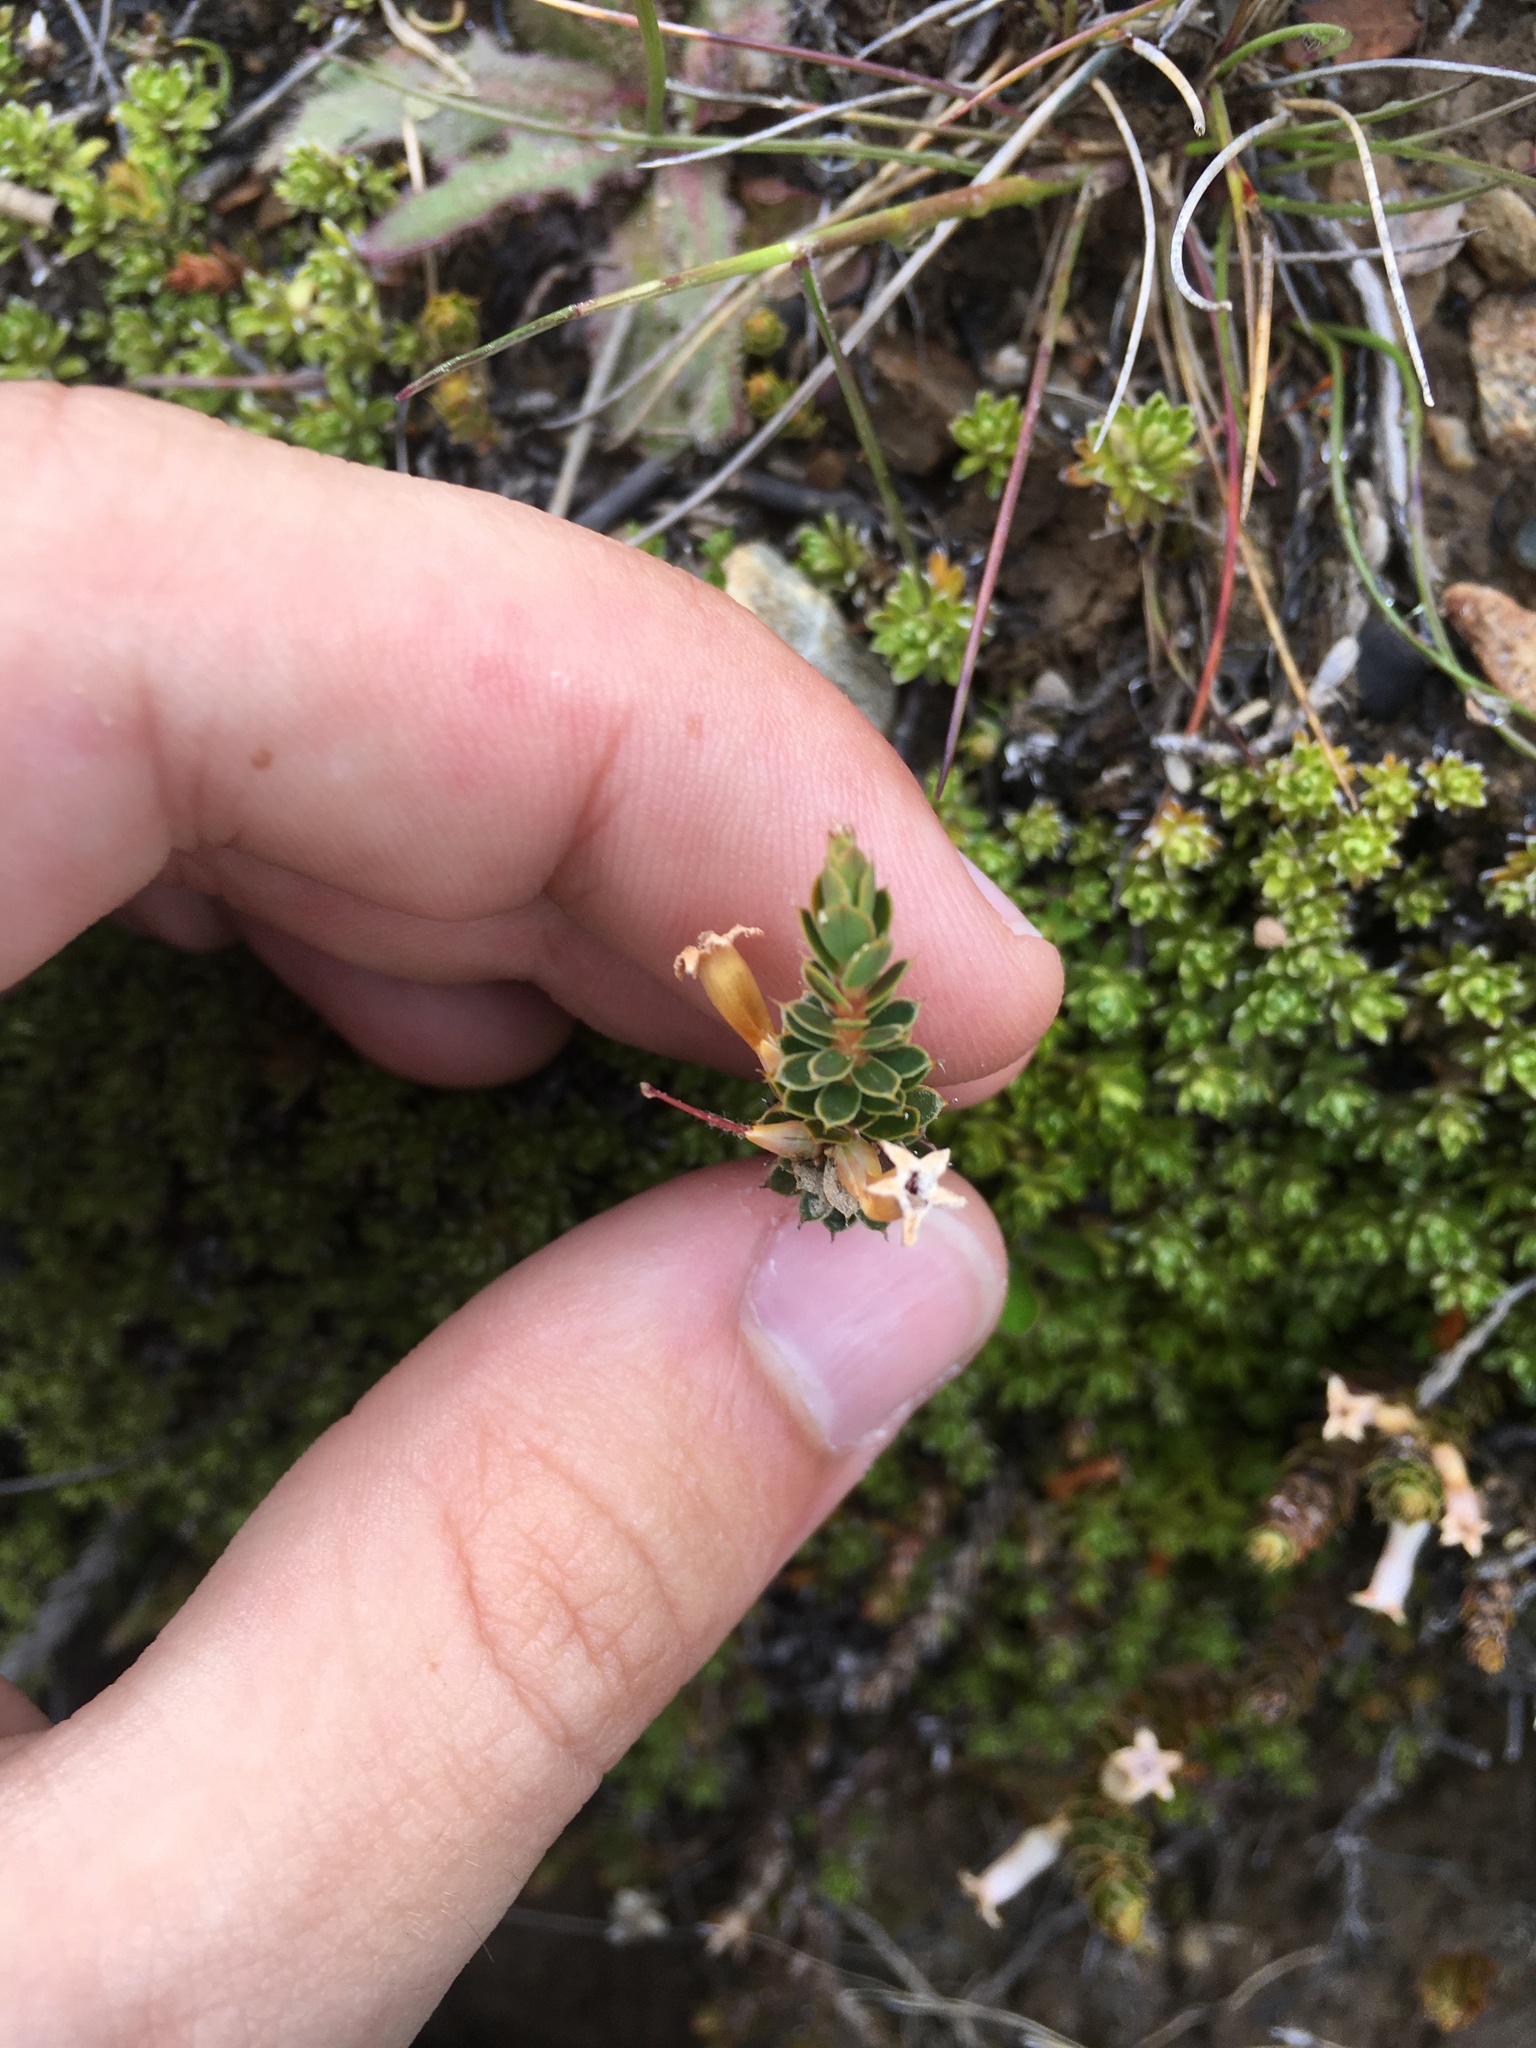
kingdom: Plantae
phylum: Tracheophyta
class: Magnoliopsida
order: Ericales
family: Ericaceae
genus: Styphelia
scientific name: Styphelia nesophila
